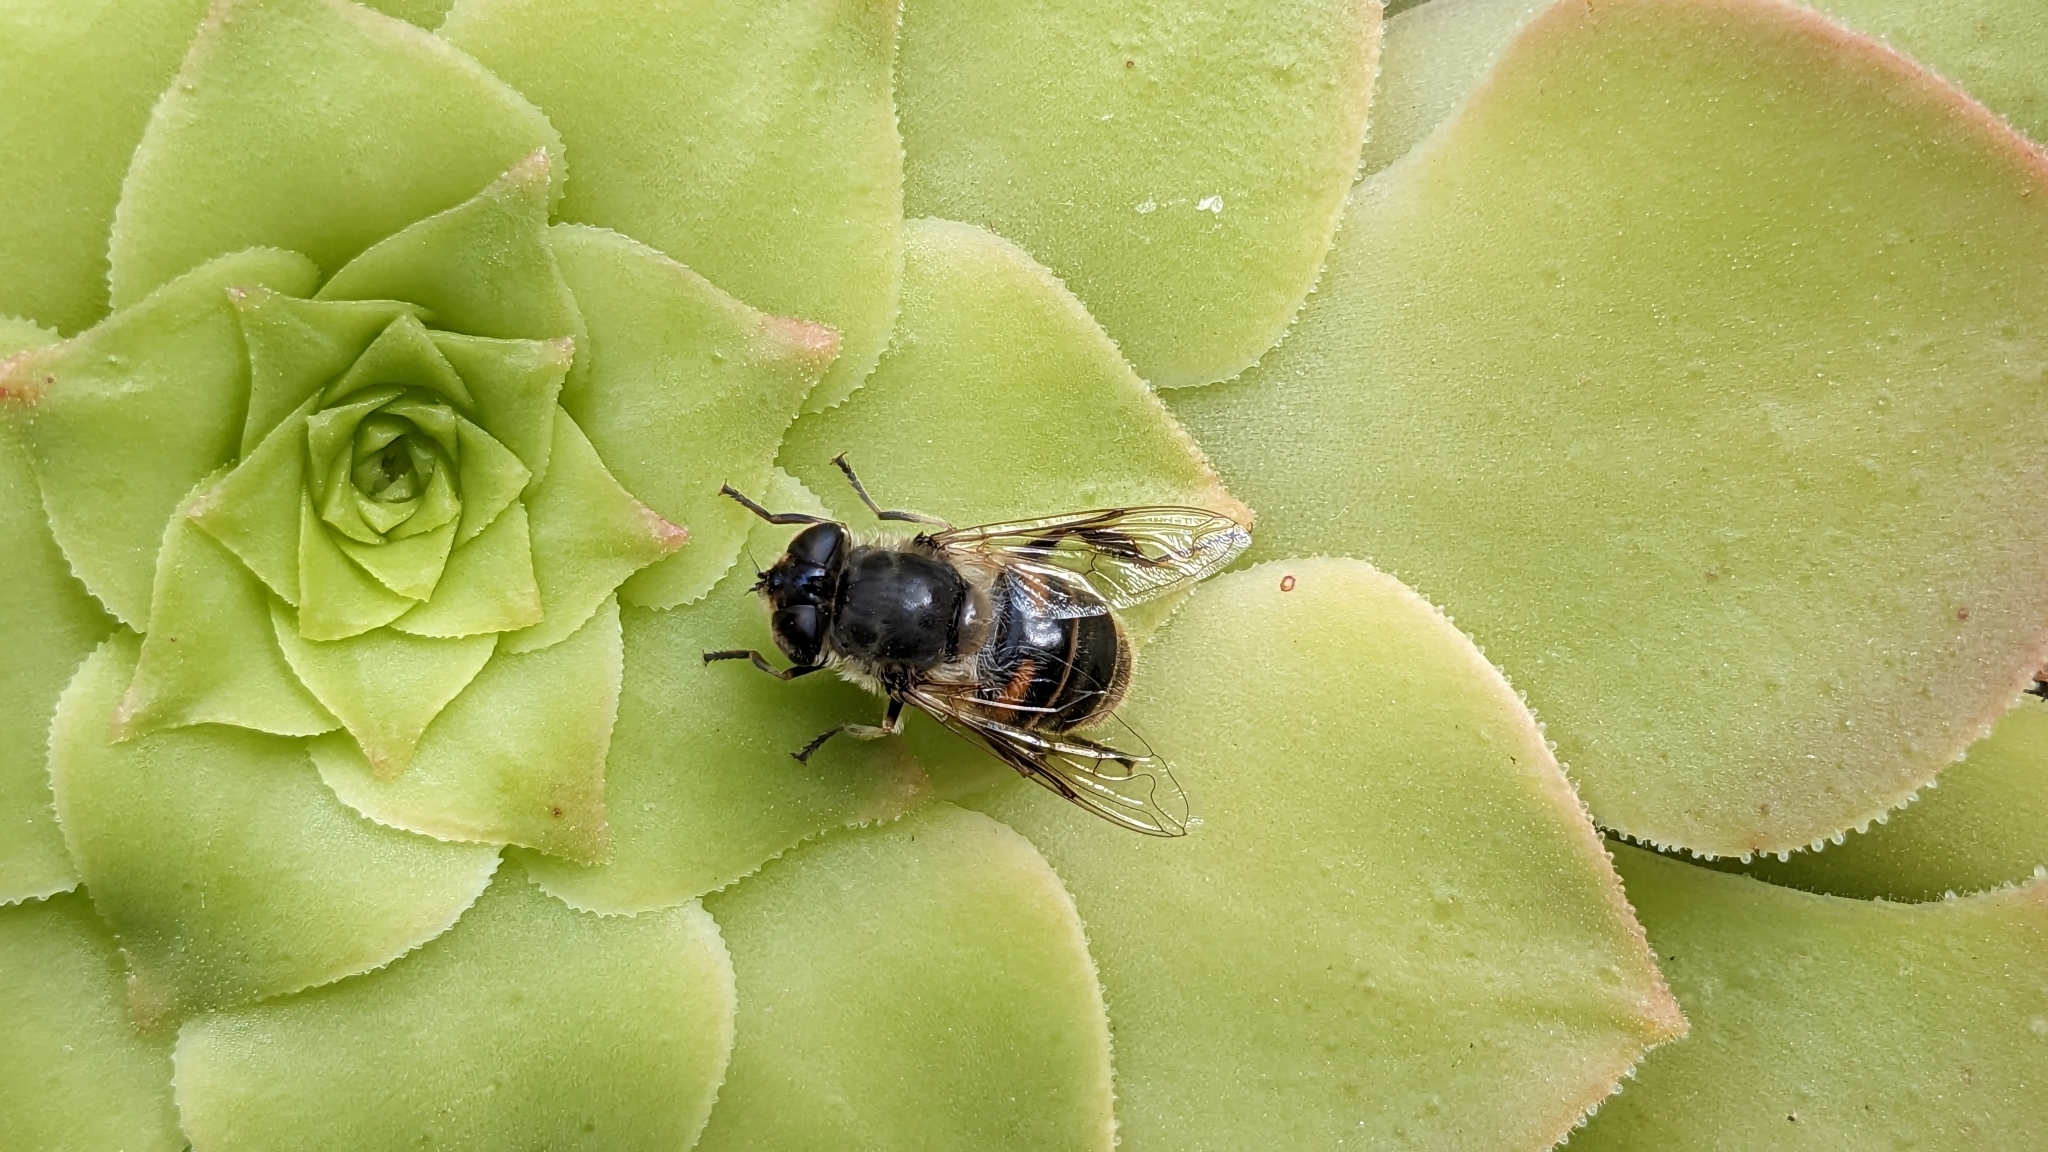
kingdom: Animalia
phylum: Arthropoda
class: Insecta
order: Diptera
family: Syrphidae
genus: Eristalis
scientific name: Eristalis tenax
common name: Drone fly
